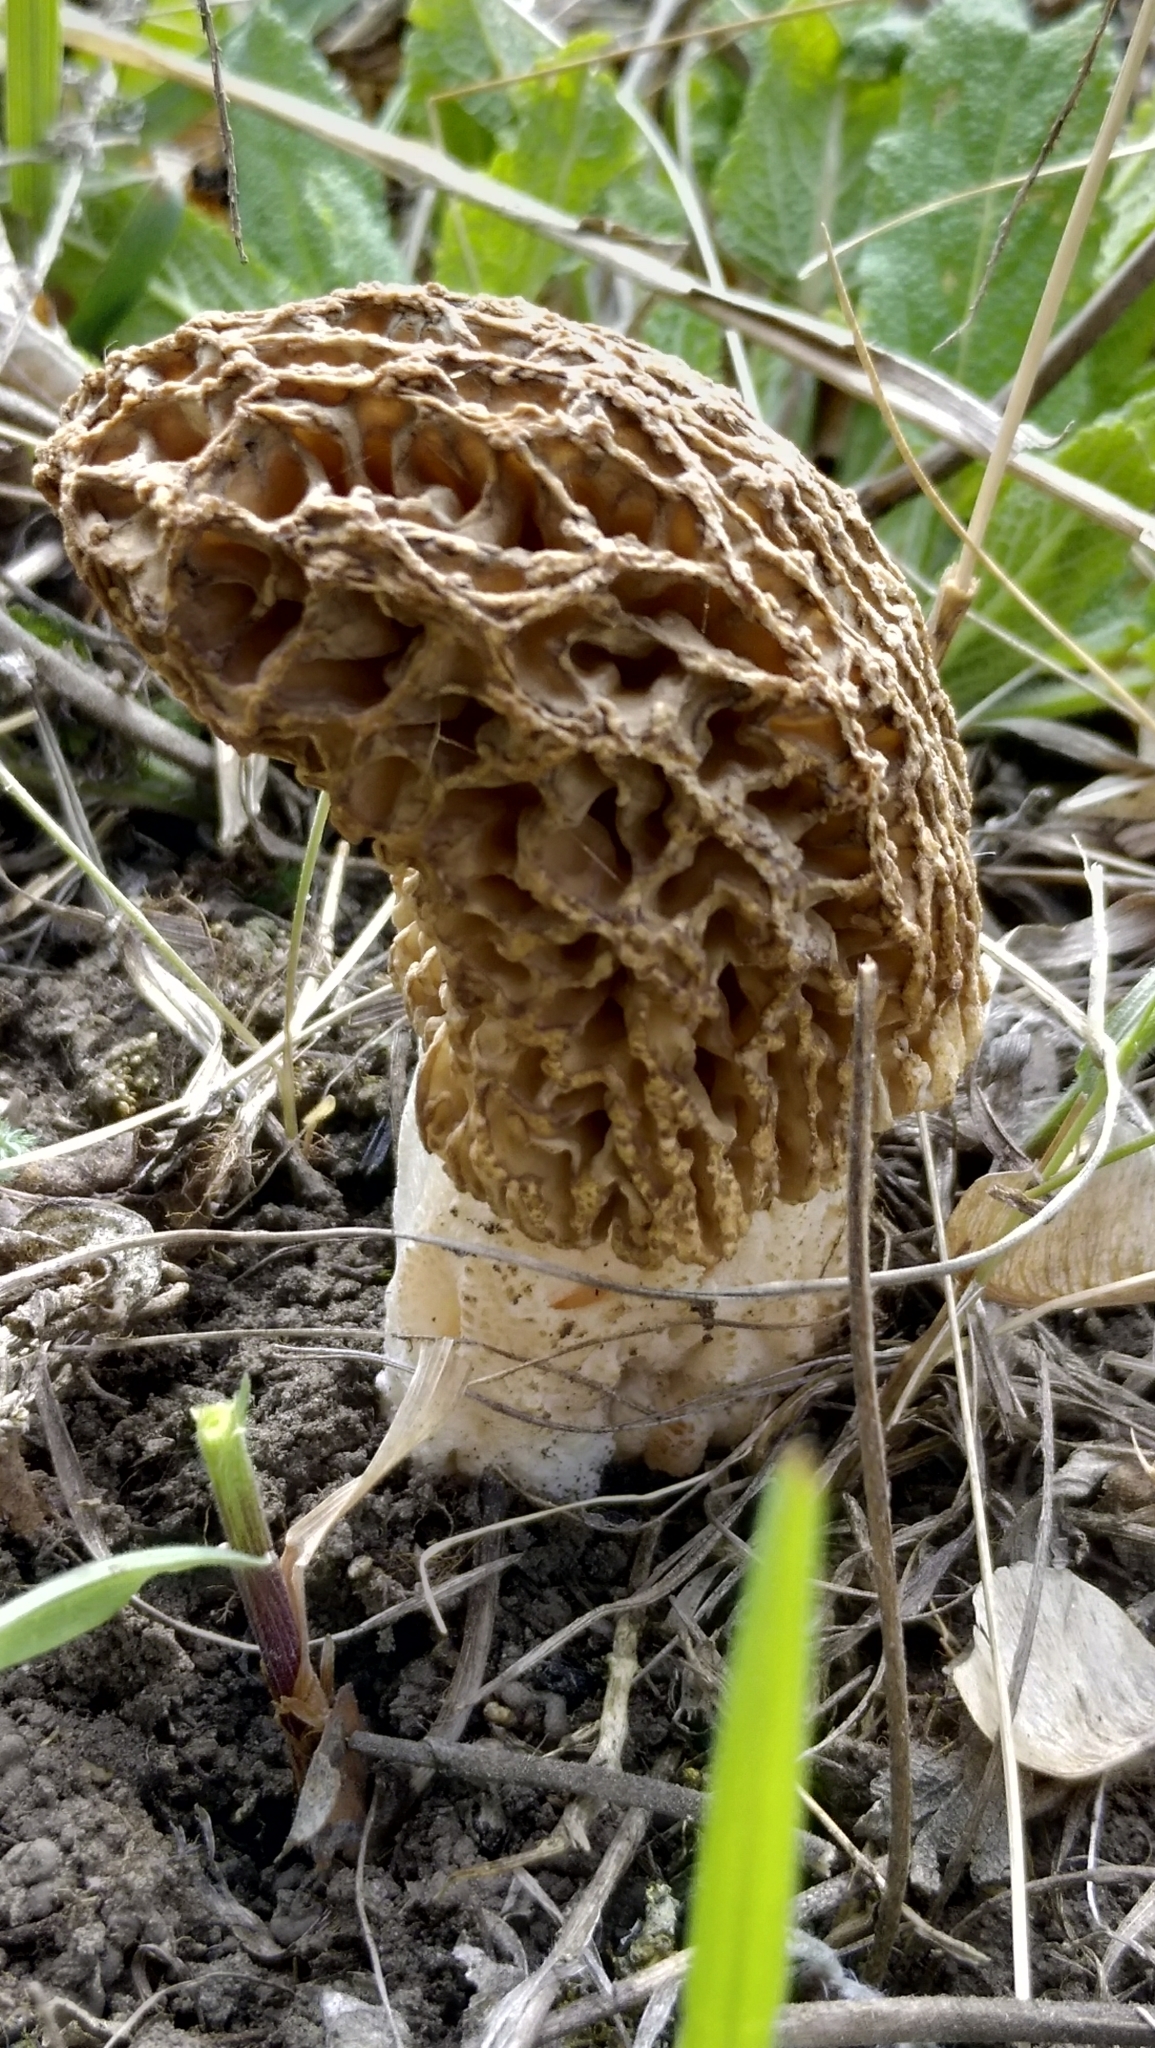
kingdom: Fungi
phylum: Ascomycota
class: Pezizomycetes
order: Pezizales
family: Morchellaceae
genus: Morchella
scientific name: Morchella americana
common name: White morel
